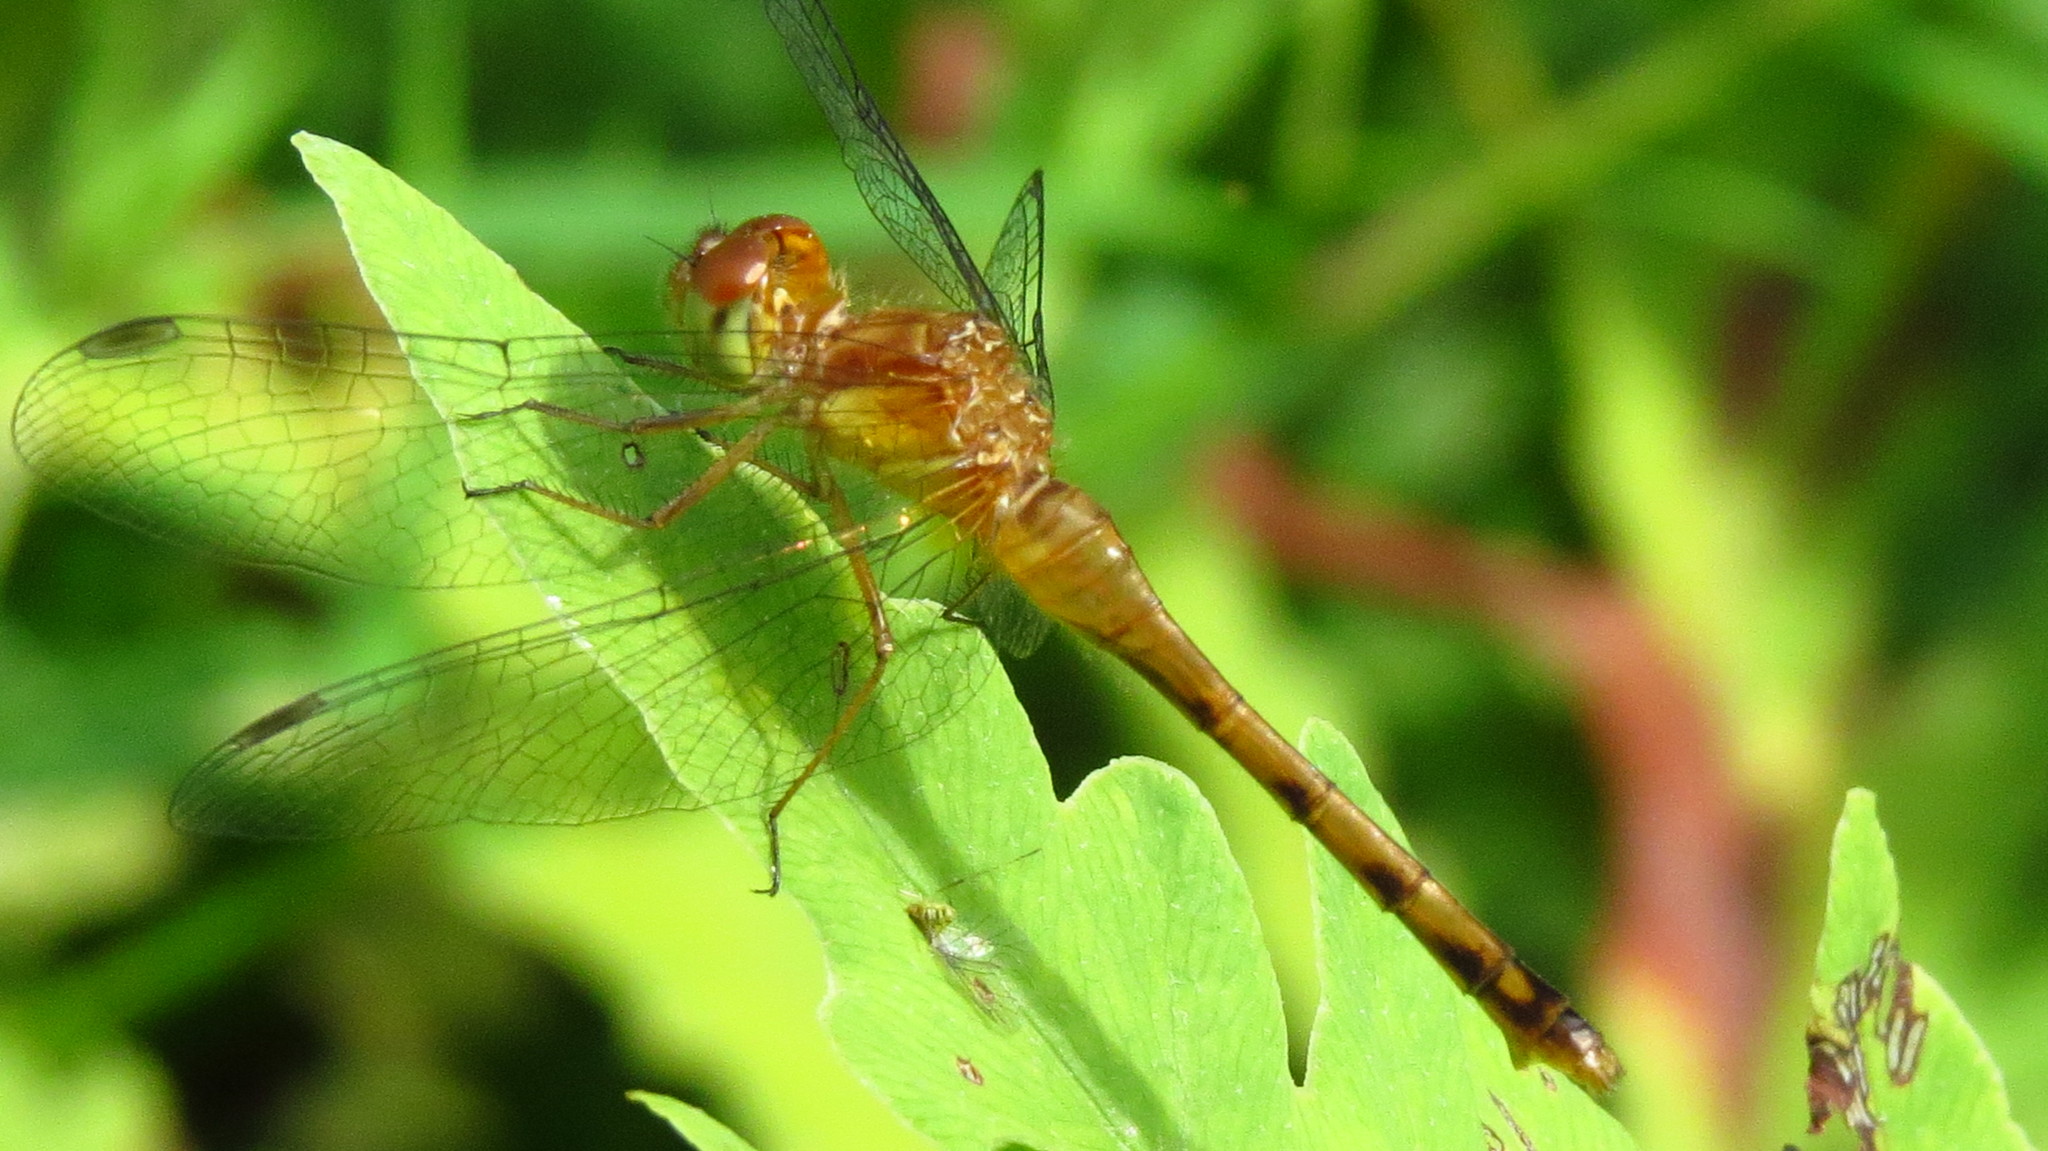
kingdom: Animalia
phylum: Arthropoda
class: Insecta
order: Odonata
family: Libellulidae
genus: Sympetrum
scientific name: Sympetrum vicinum
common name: Autumn meadowhawk
